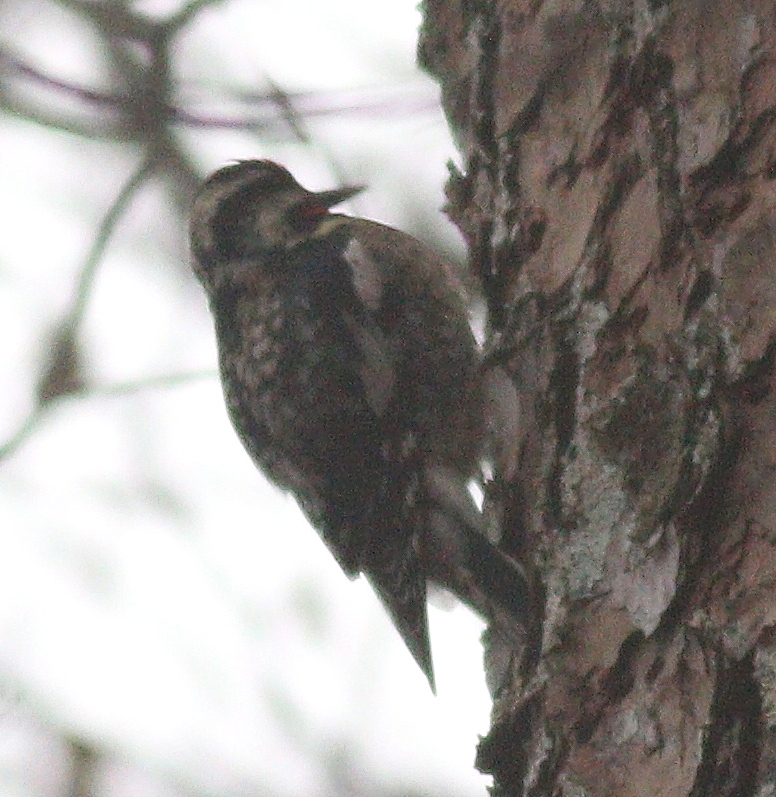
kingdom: Animalia
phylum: Chordata
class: Aves
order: Piciformes
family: Picidae
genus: Sphyrapicus
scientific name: Sphyrapicus varius
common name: Yellow-bellied sapsucker
